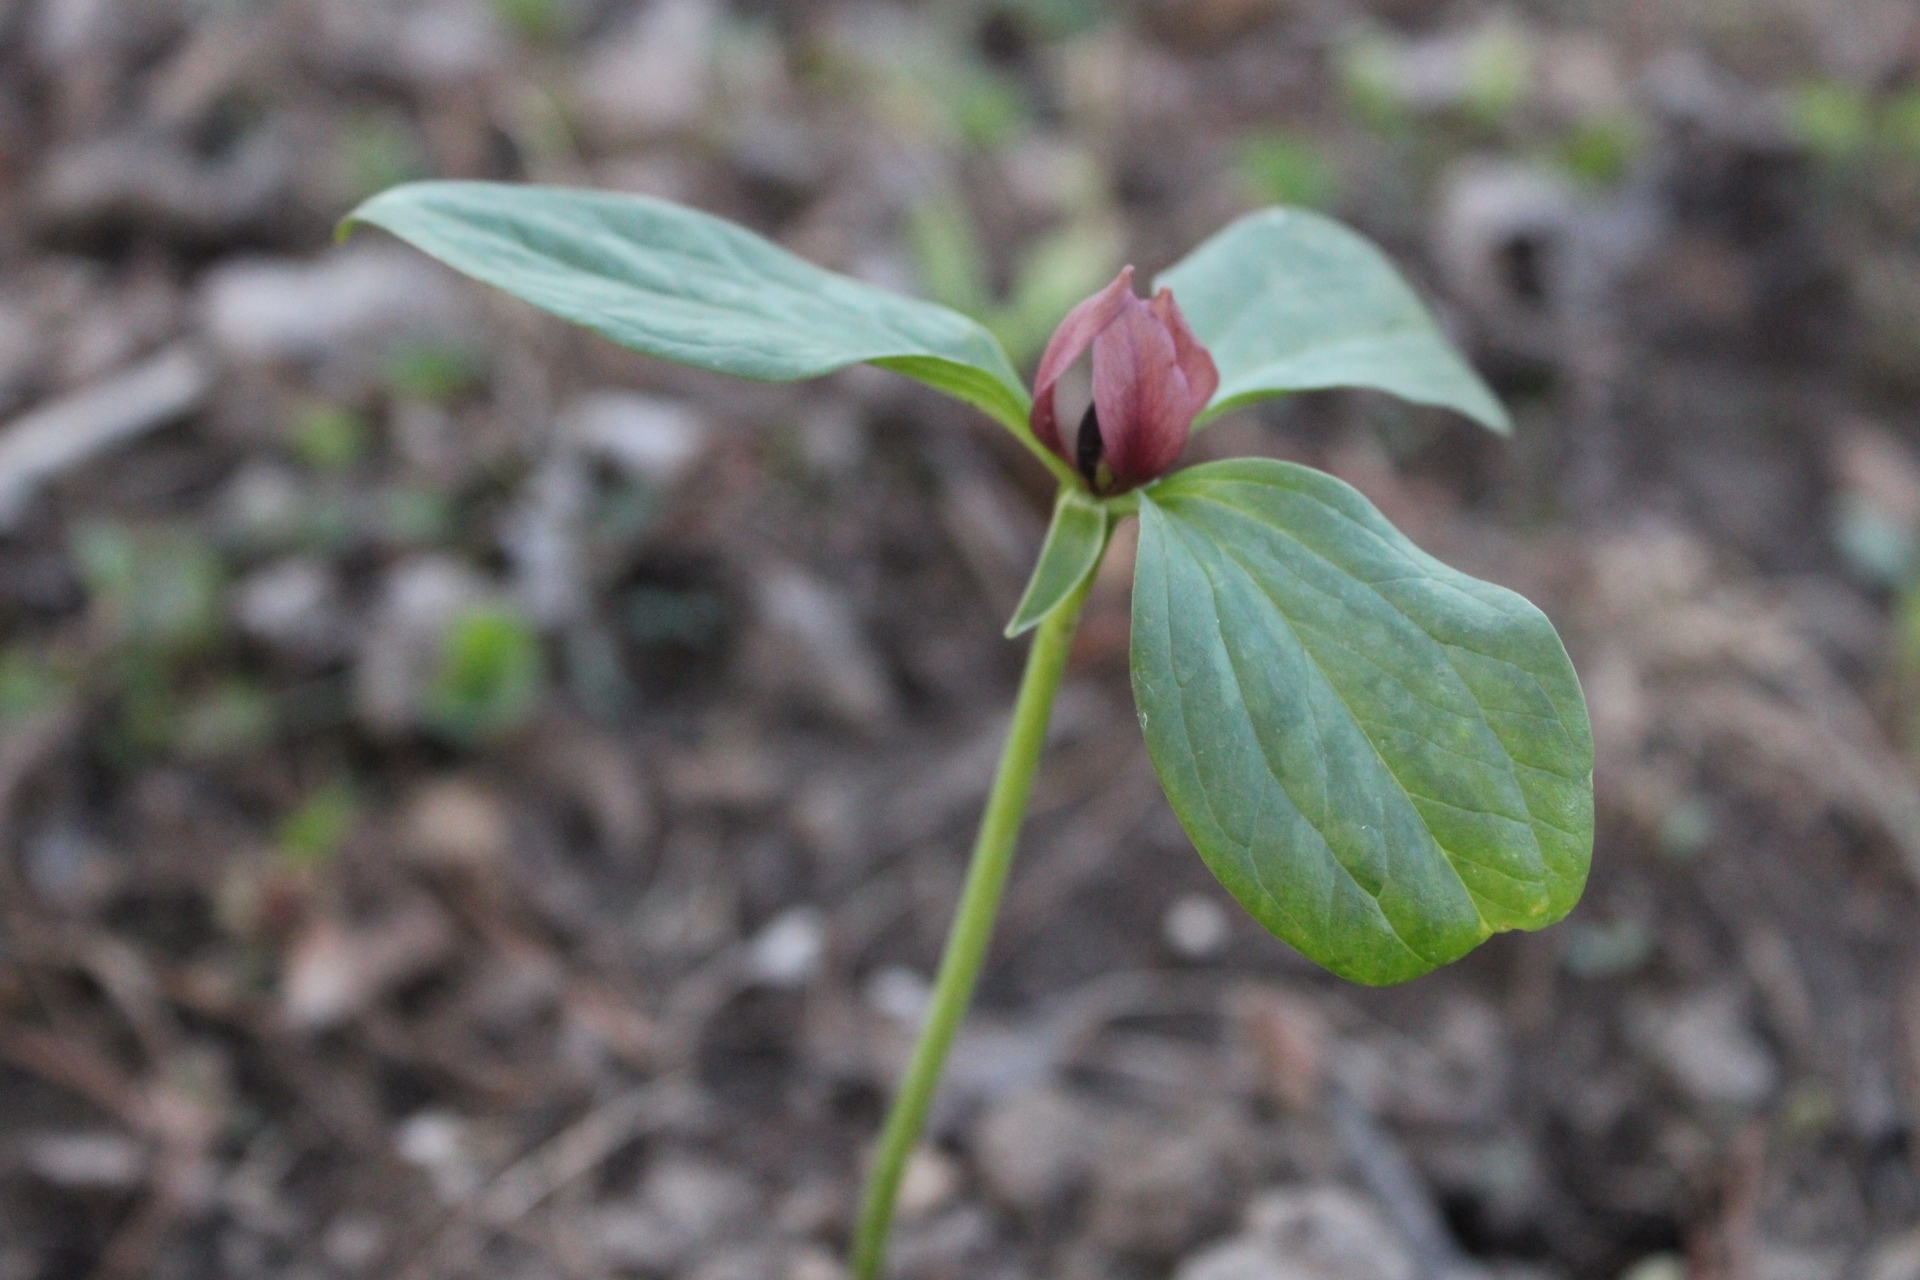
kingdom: Plantae
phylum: Tracheophyta
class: Liliopsida
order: Liliales
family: Melanthiaceae
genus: Trillium
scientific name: Trillium recurvatum
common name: Bloody butcher
